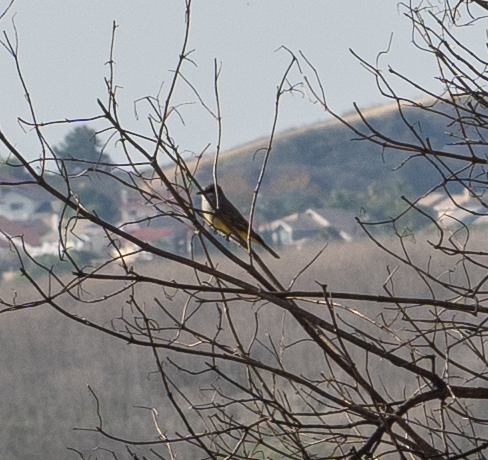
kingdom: Animalia
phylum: Chordata
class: Aves
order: Passeriformes
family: Tyrannidae
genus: Tyrannus
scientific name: Tyrannus vociferans
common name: Cassin's kingbird
